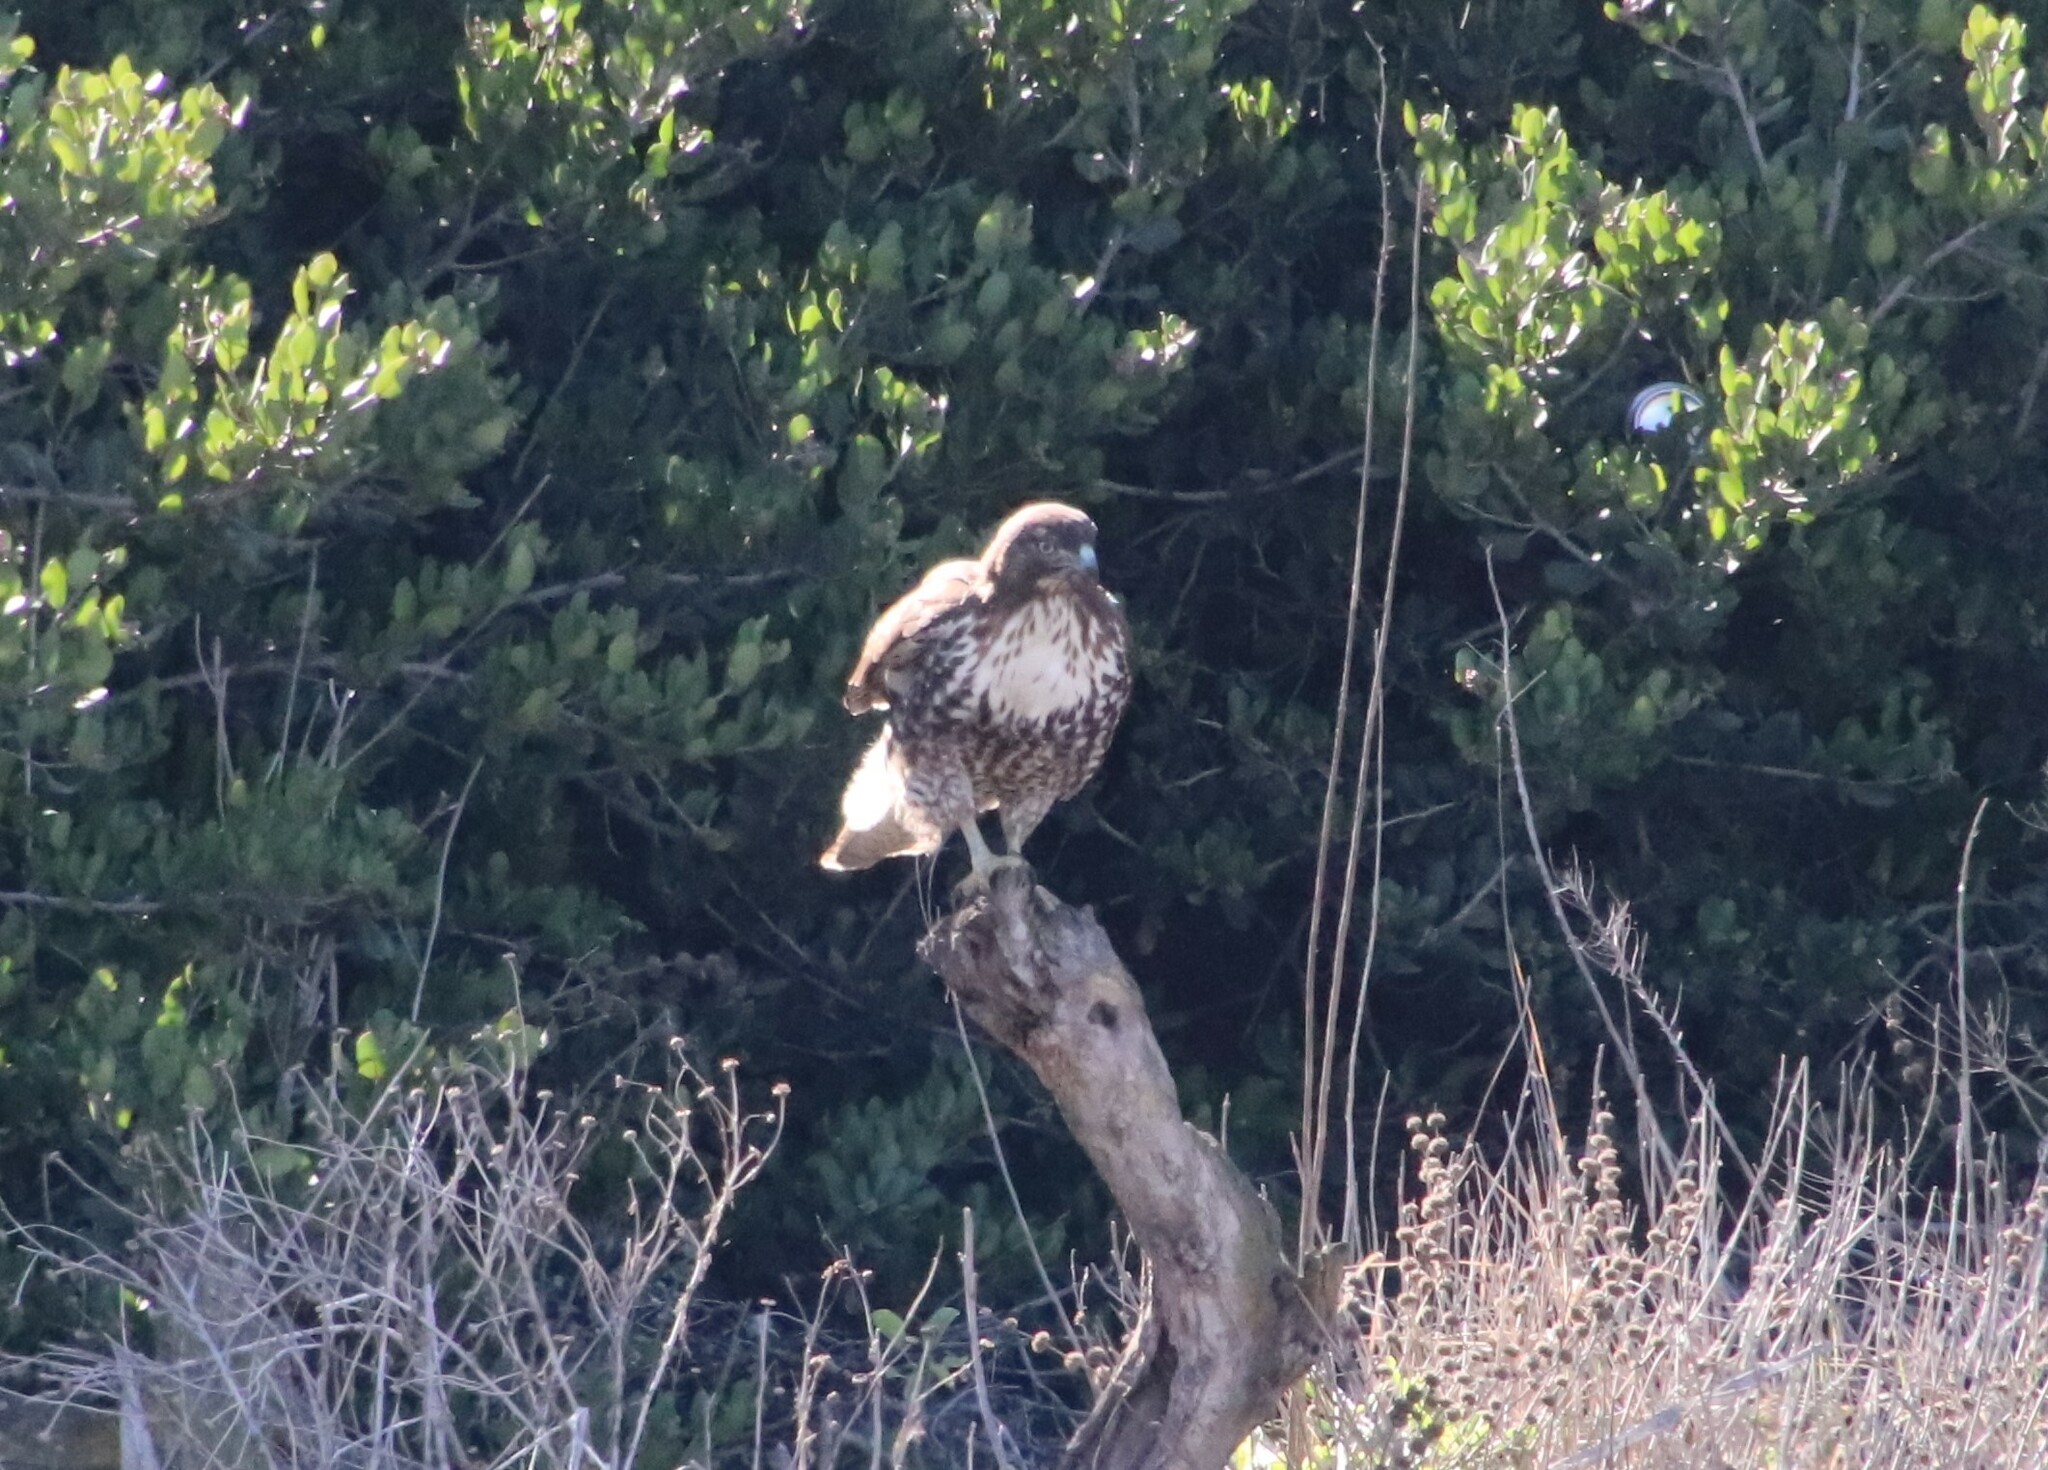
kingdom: Animalia
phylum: Chordata
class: Aves
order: Accipitriformes
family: Accipitridae
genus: Buteo
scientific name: Buteo jamaicensis
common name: Red-tailed hawk
